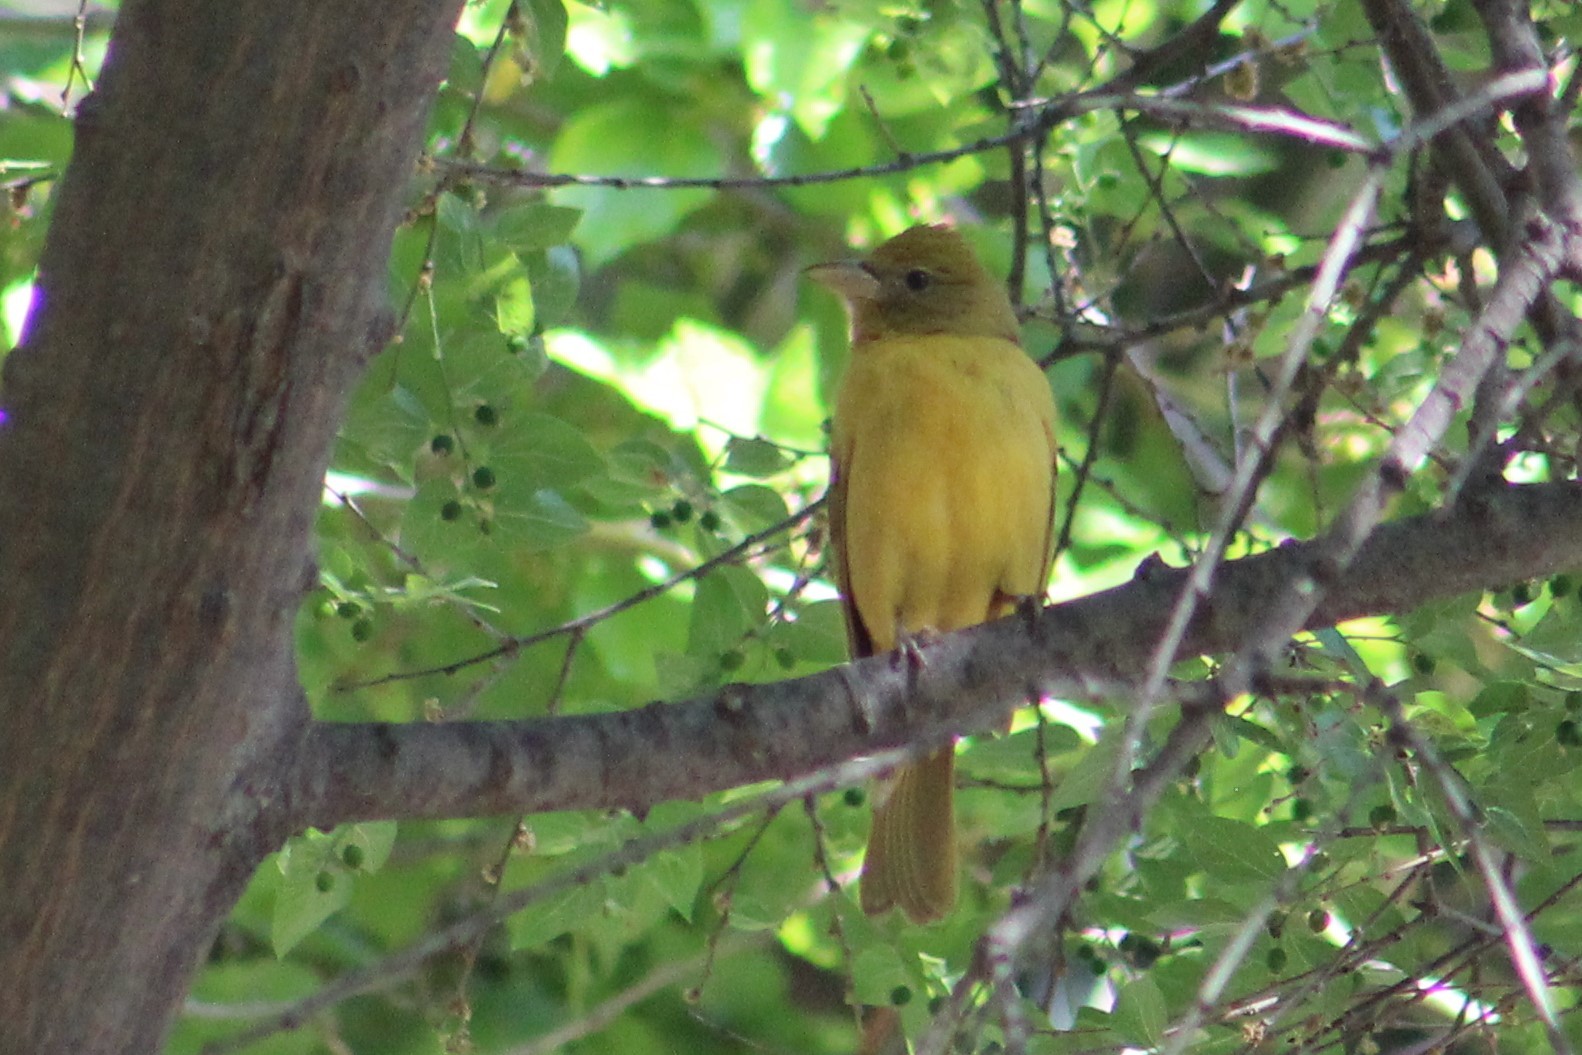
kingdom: Animalia
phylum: Chordata
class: Aves
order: Passeriformes
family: Cardinalidae
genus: Piranga
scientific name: Piranga rubra
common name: Summer tanager
